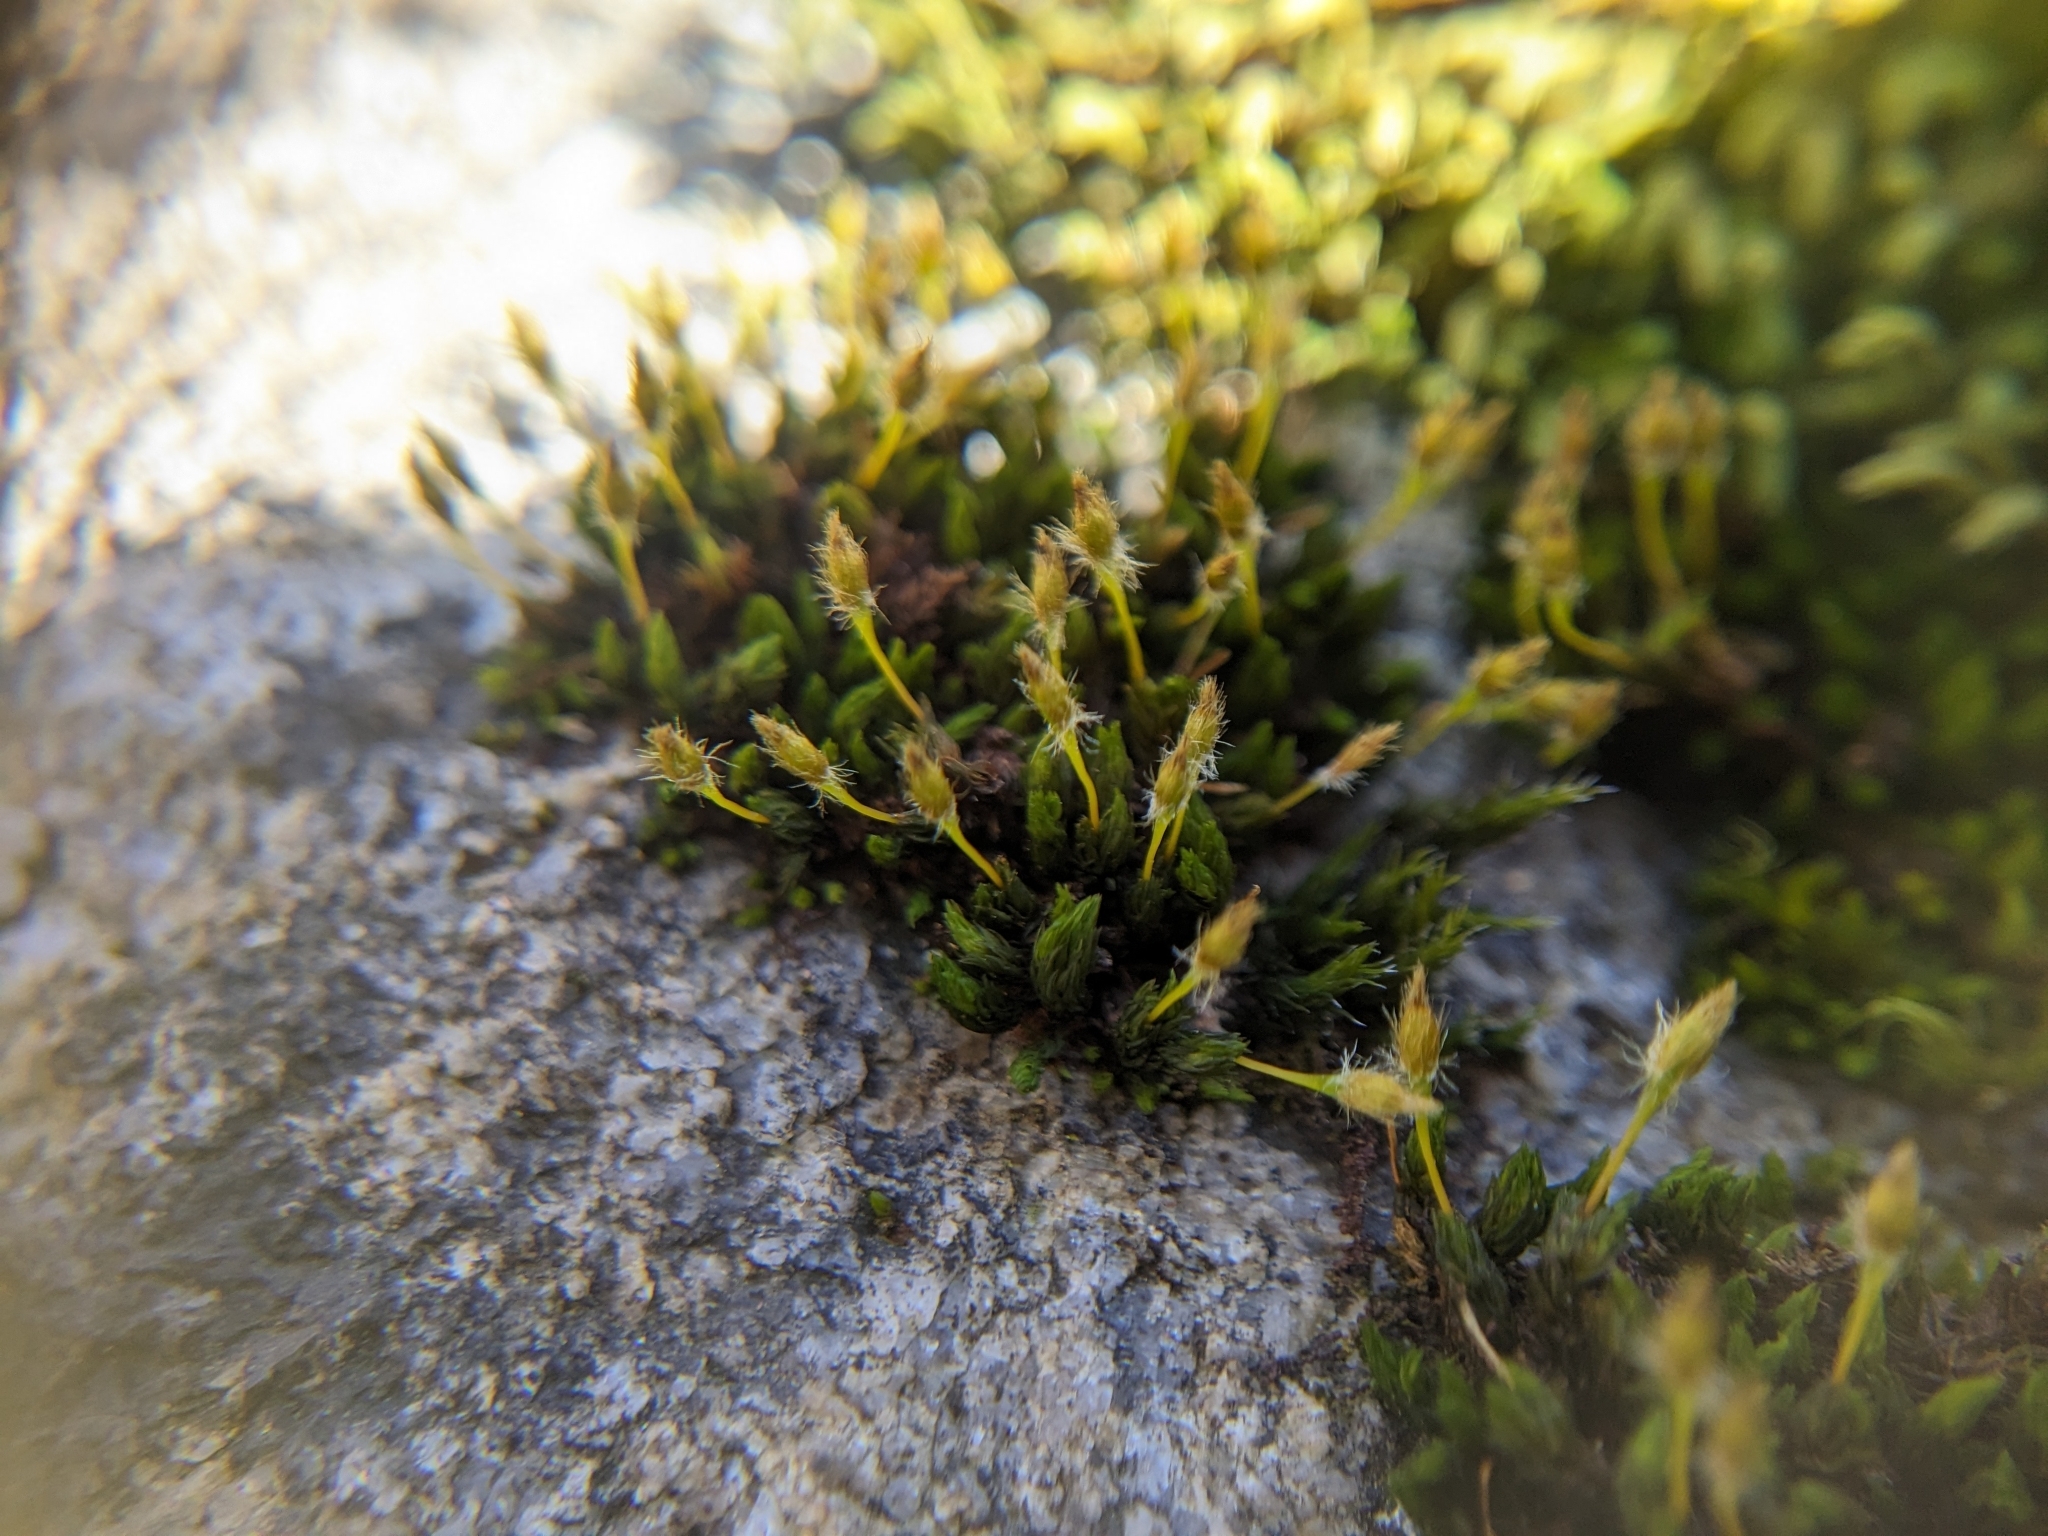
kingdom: Plantae
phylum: Bryophyta
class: Bryopsida
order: Orthotrichales
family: Orthotrichaceae
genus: Ulota
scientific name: Ulota hutchinsiae
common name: Hutchins' pincushion
